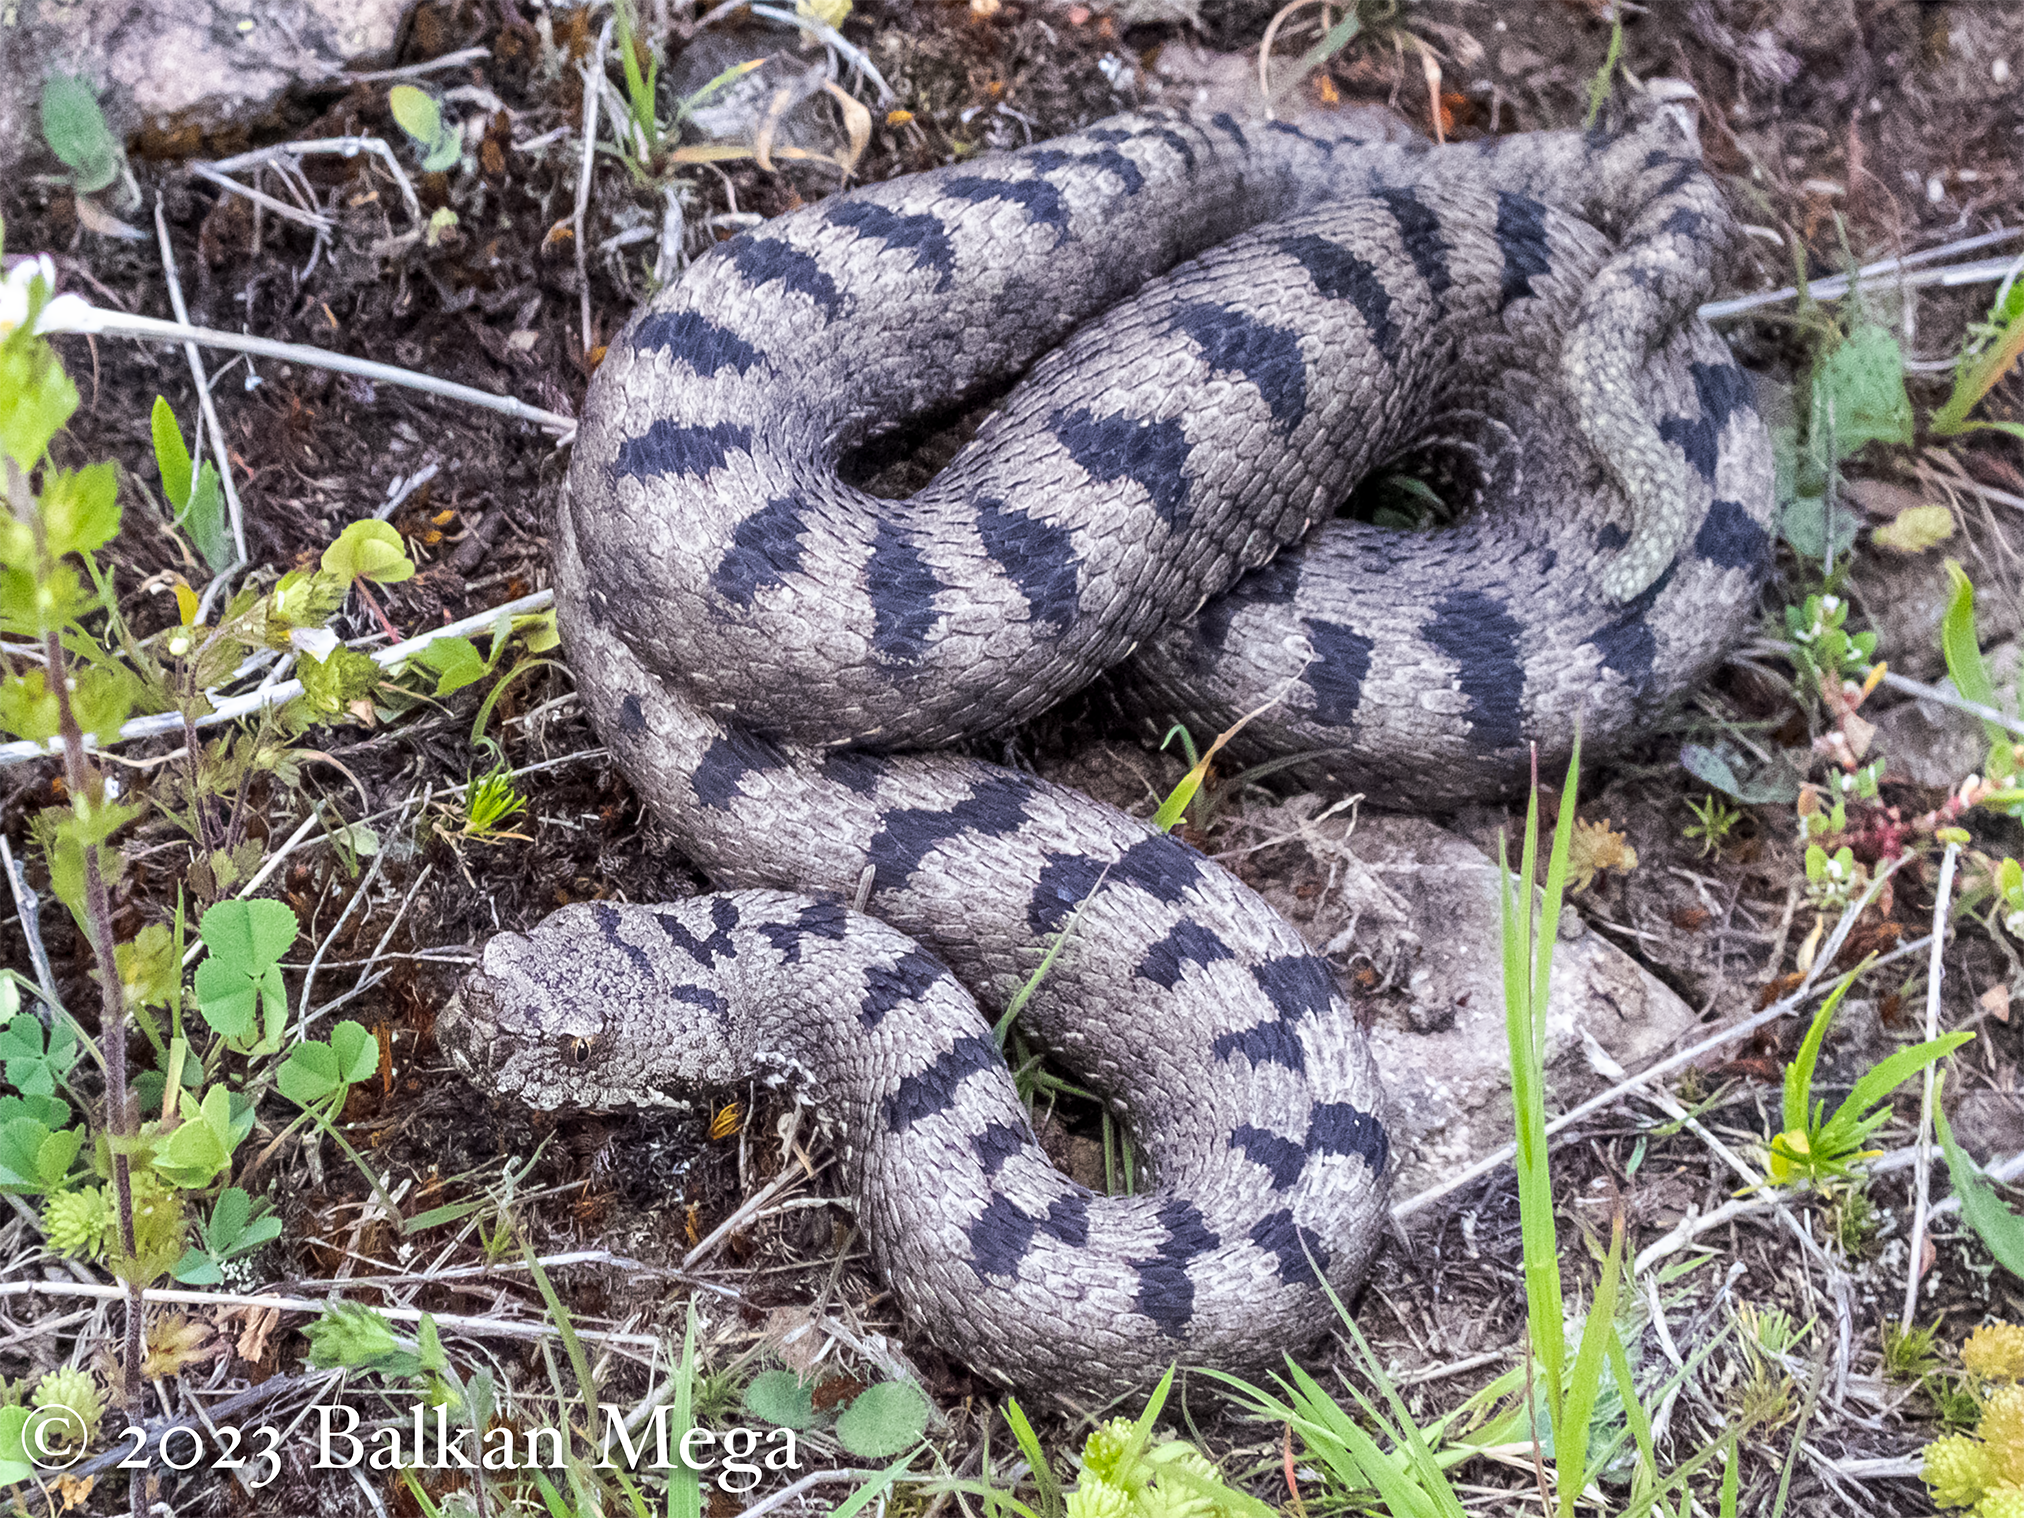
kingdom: Animalia
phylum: Chordata
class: Squamata
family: Viperidae
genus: Vipera
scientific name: Vipera transcaucasiana
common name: Transcaucasian long-nosed viper
